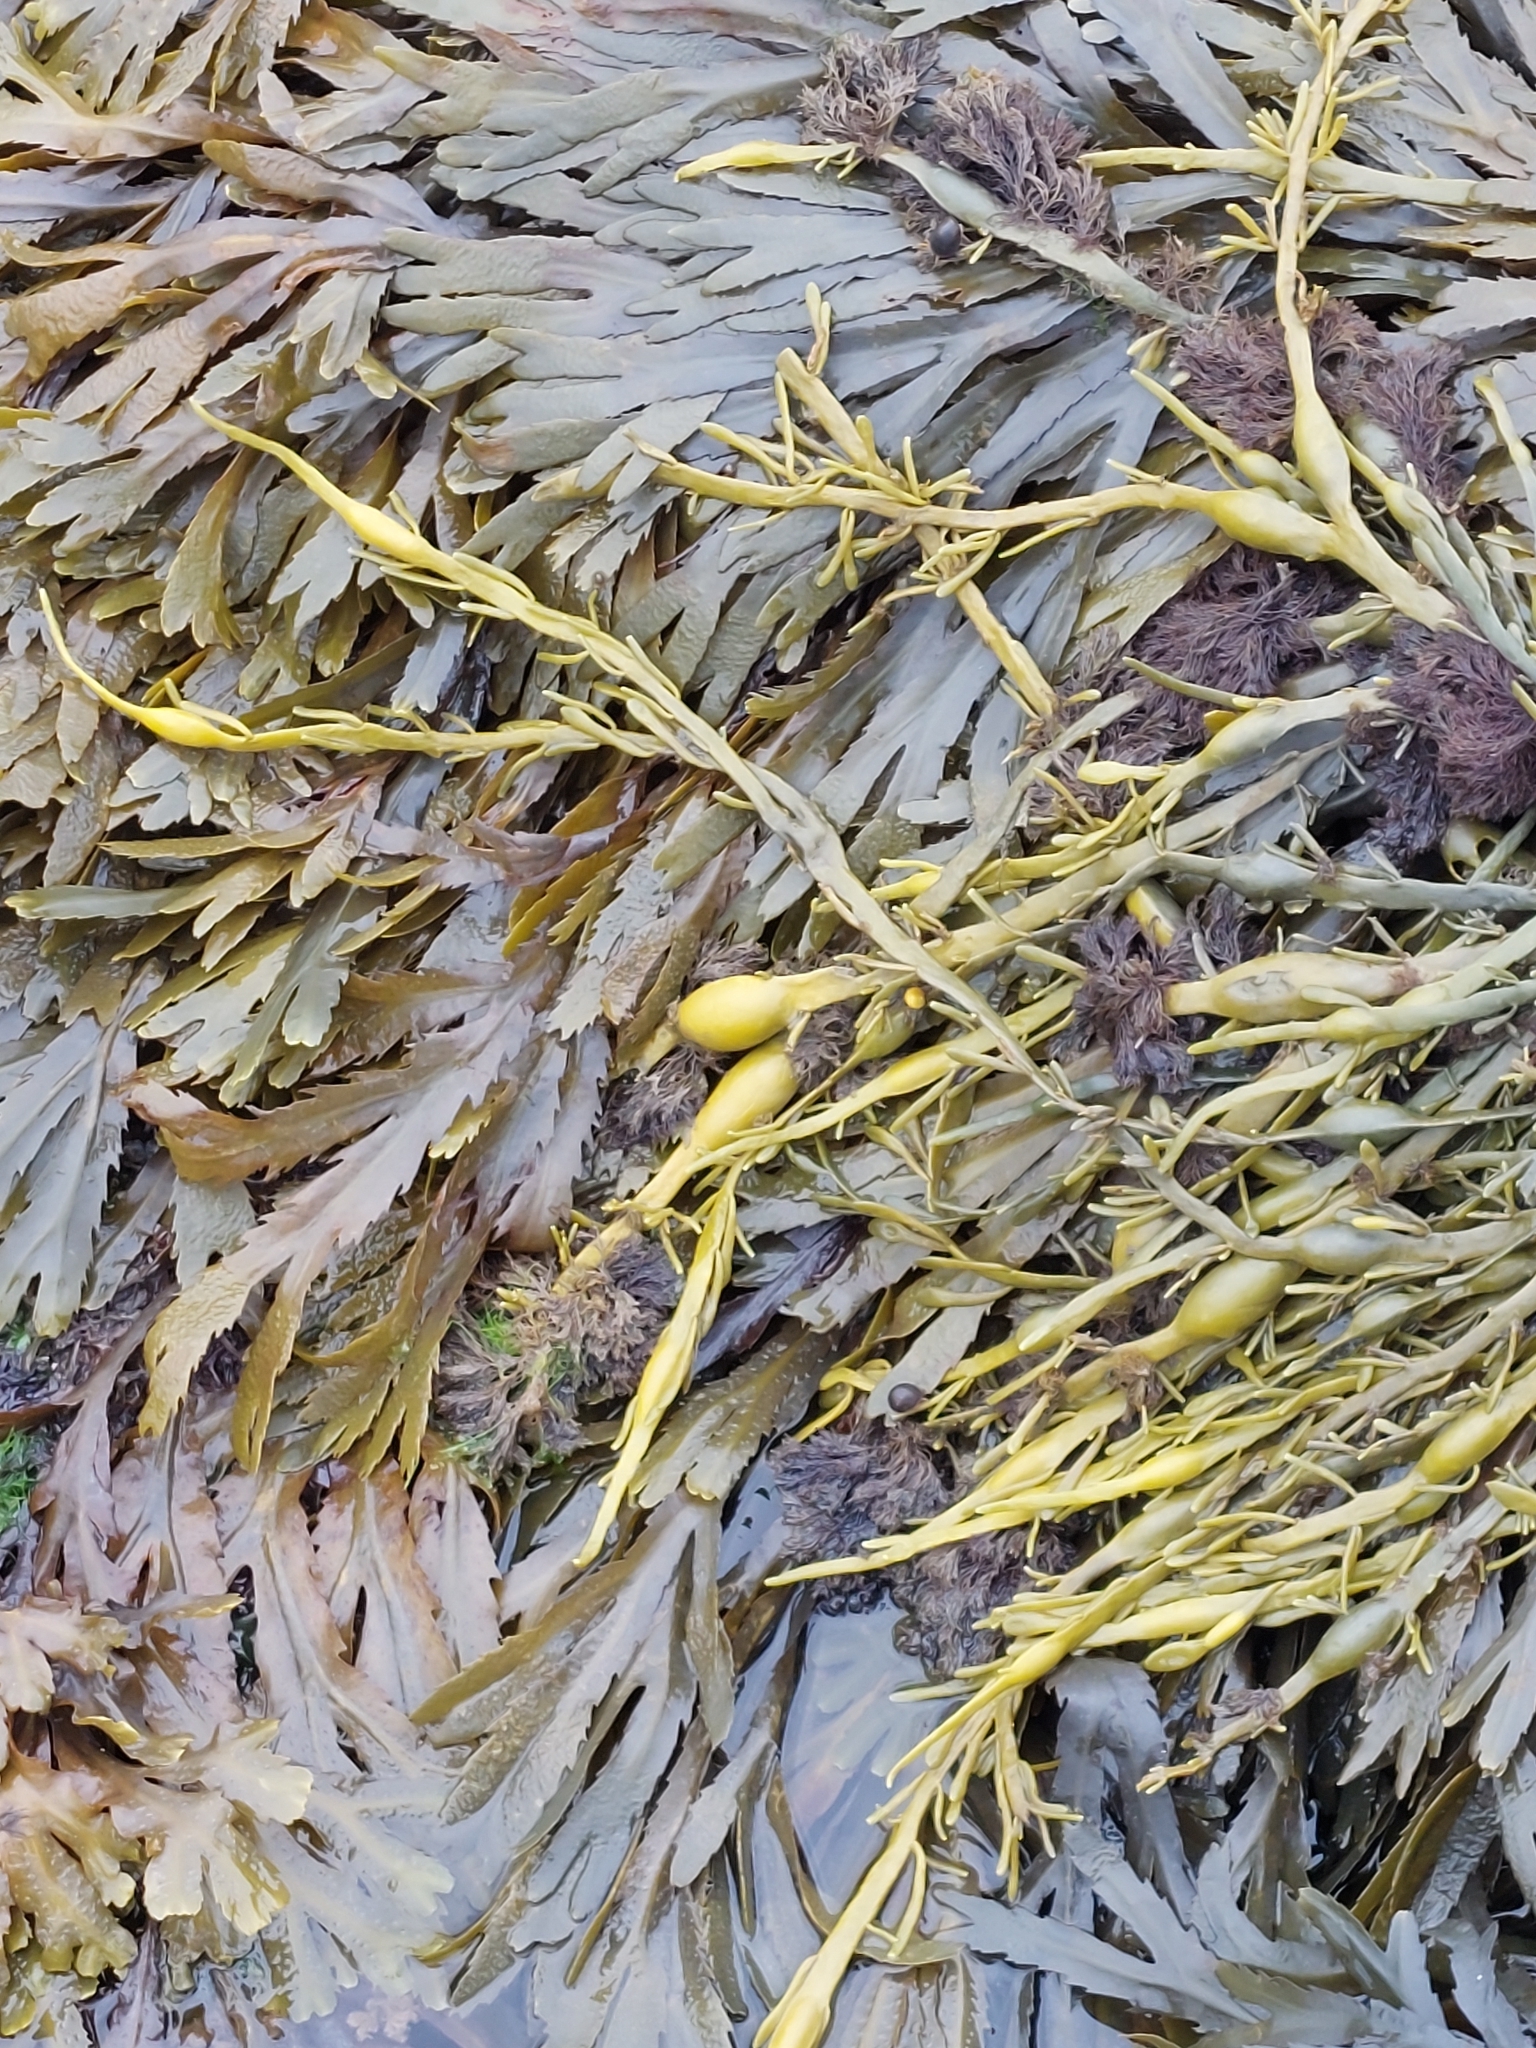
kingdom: Chromista
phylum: Ochrophyta
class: Phaeophyceae
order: Fucales
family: Fucaceae
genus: Ascophyllum
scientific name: Ascophyllum nodosum
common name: Knotted wrack
